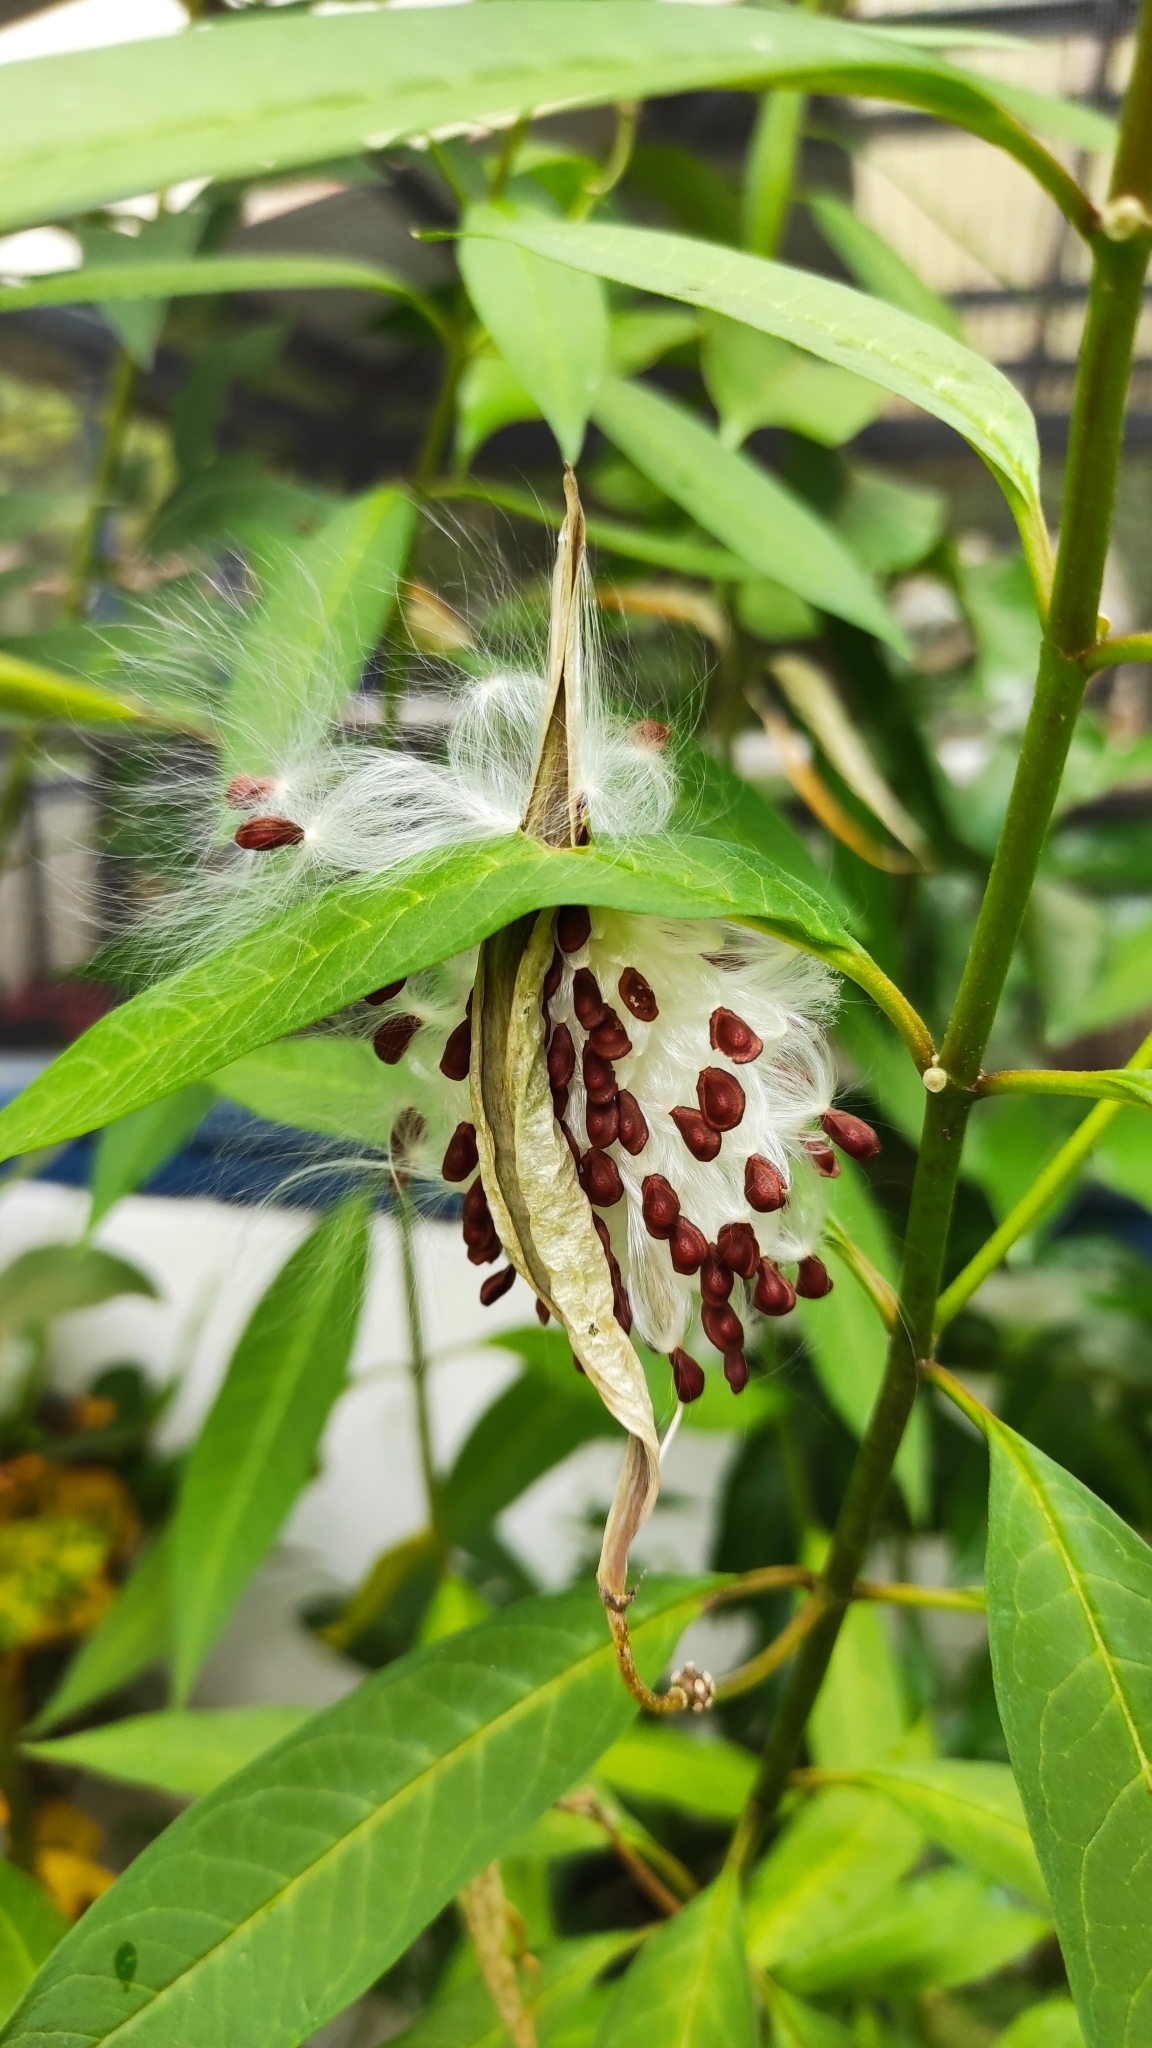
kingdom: Plantae
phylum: Tracheophyta
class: Magnoliopsida
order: Gentianales
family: Apocynaceae
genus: Asclepias
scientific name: Asclepias curassavica
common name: Bloodflower
